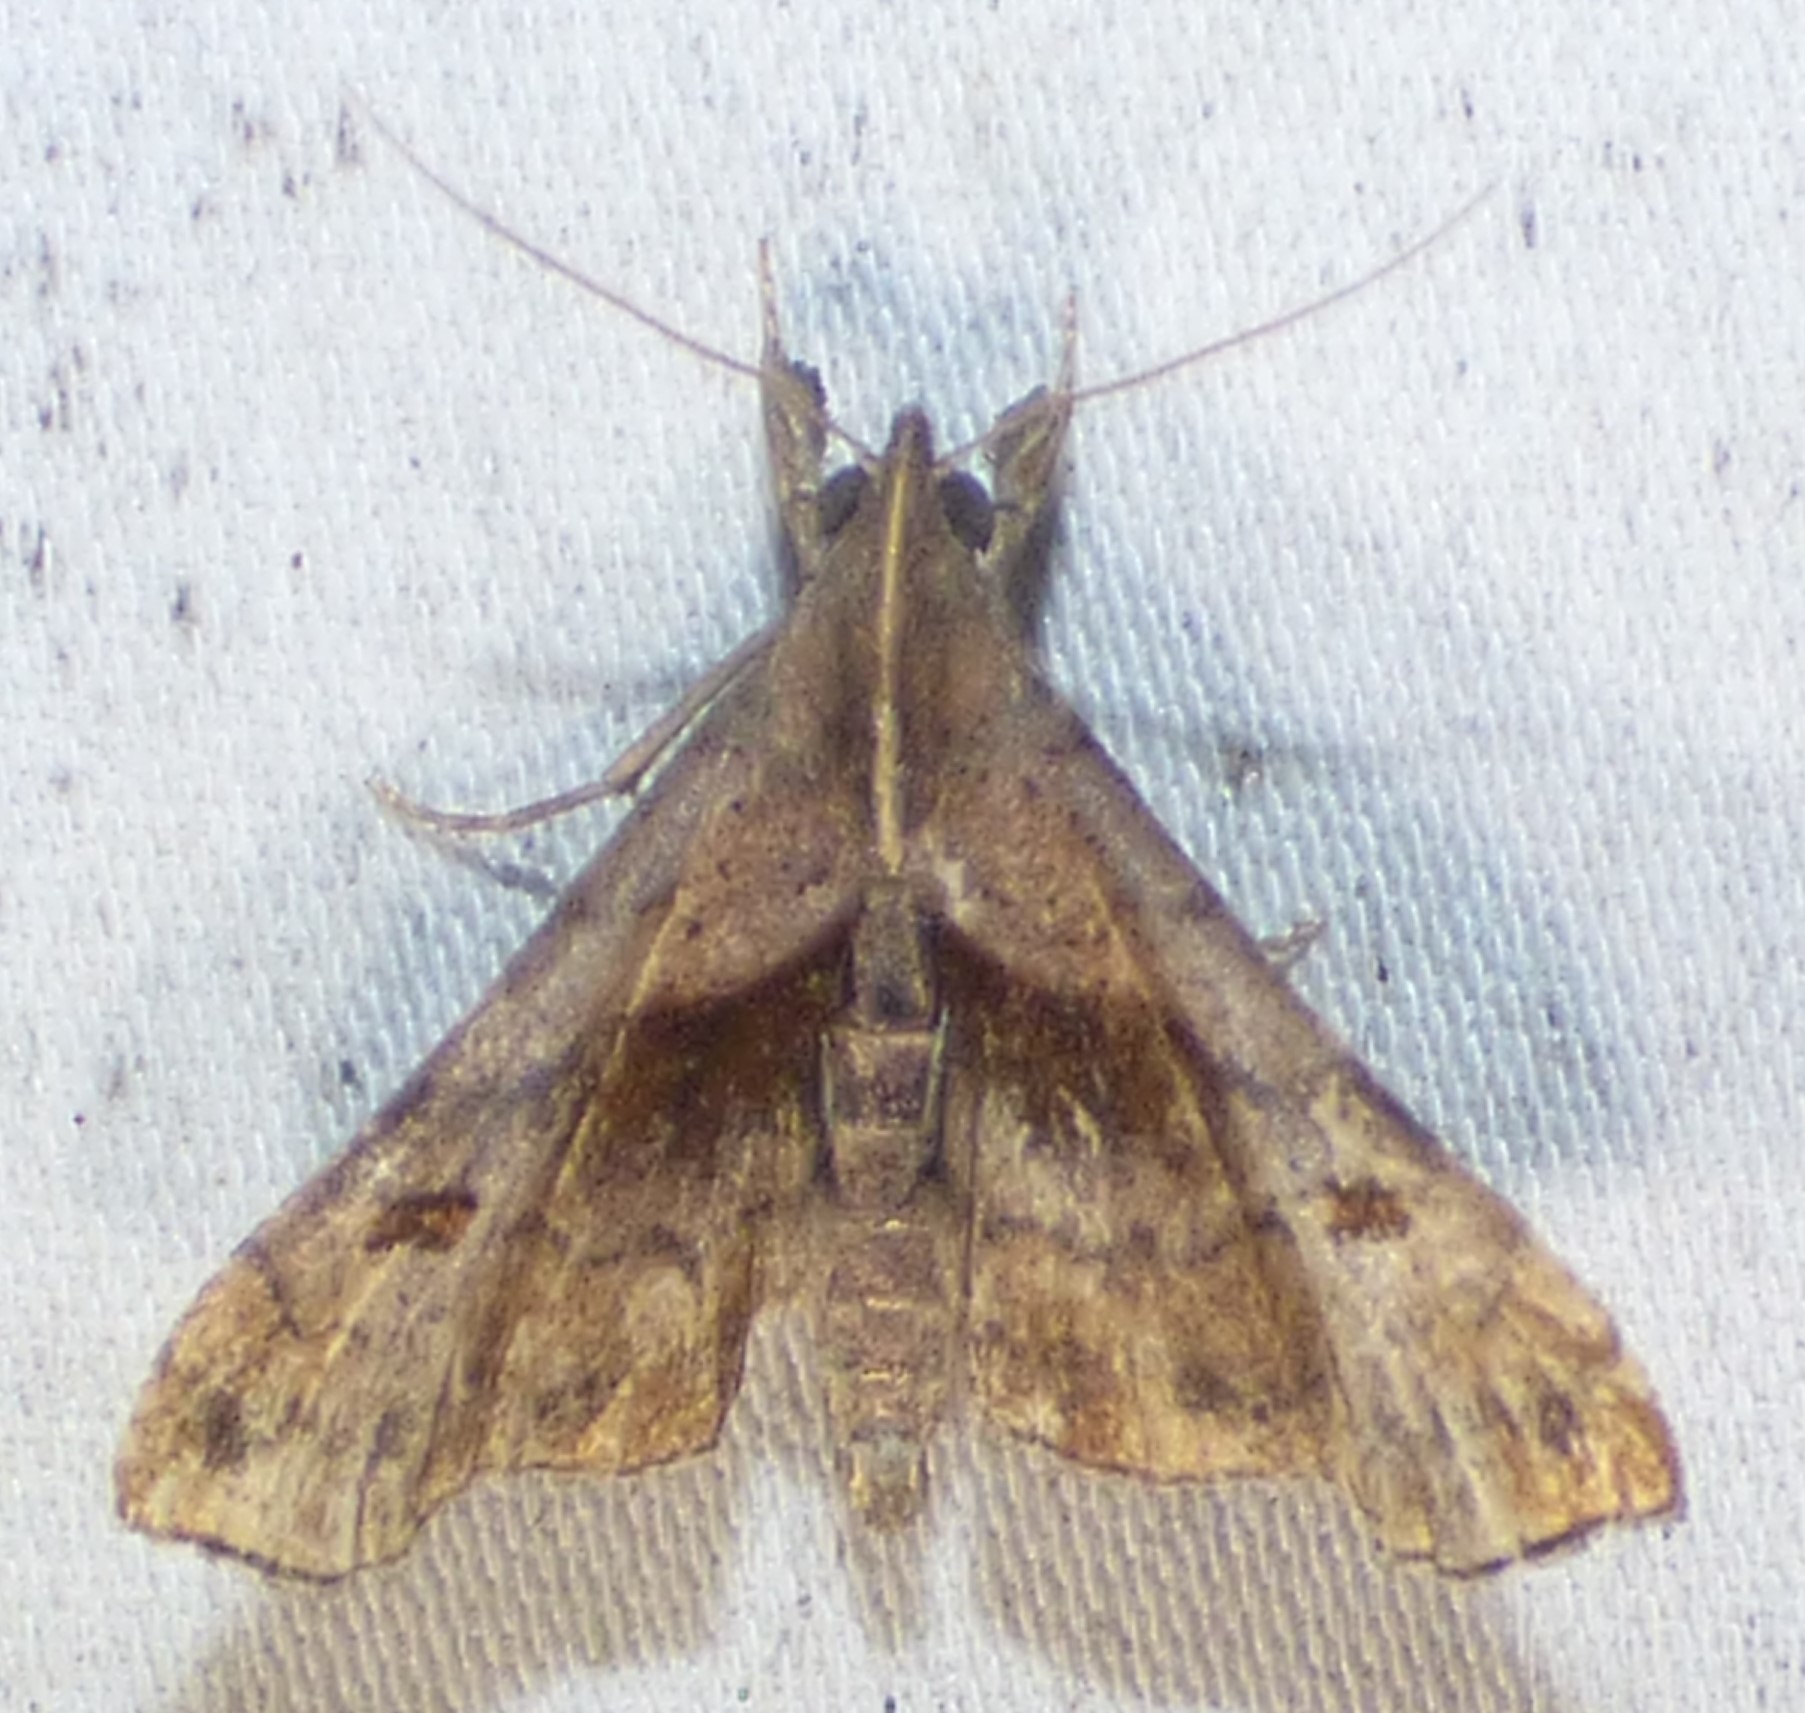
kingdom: Animalia
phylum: Arthropoda
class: Insecta
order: Lepidoptera
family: Erebidae
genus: Palthis
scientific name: Palthis angulalis
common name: Dark-spotted palthis moth
